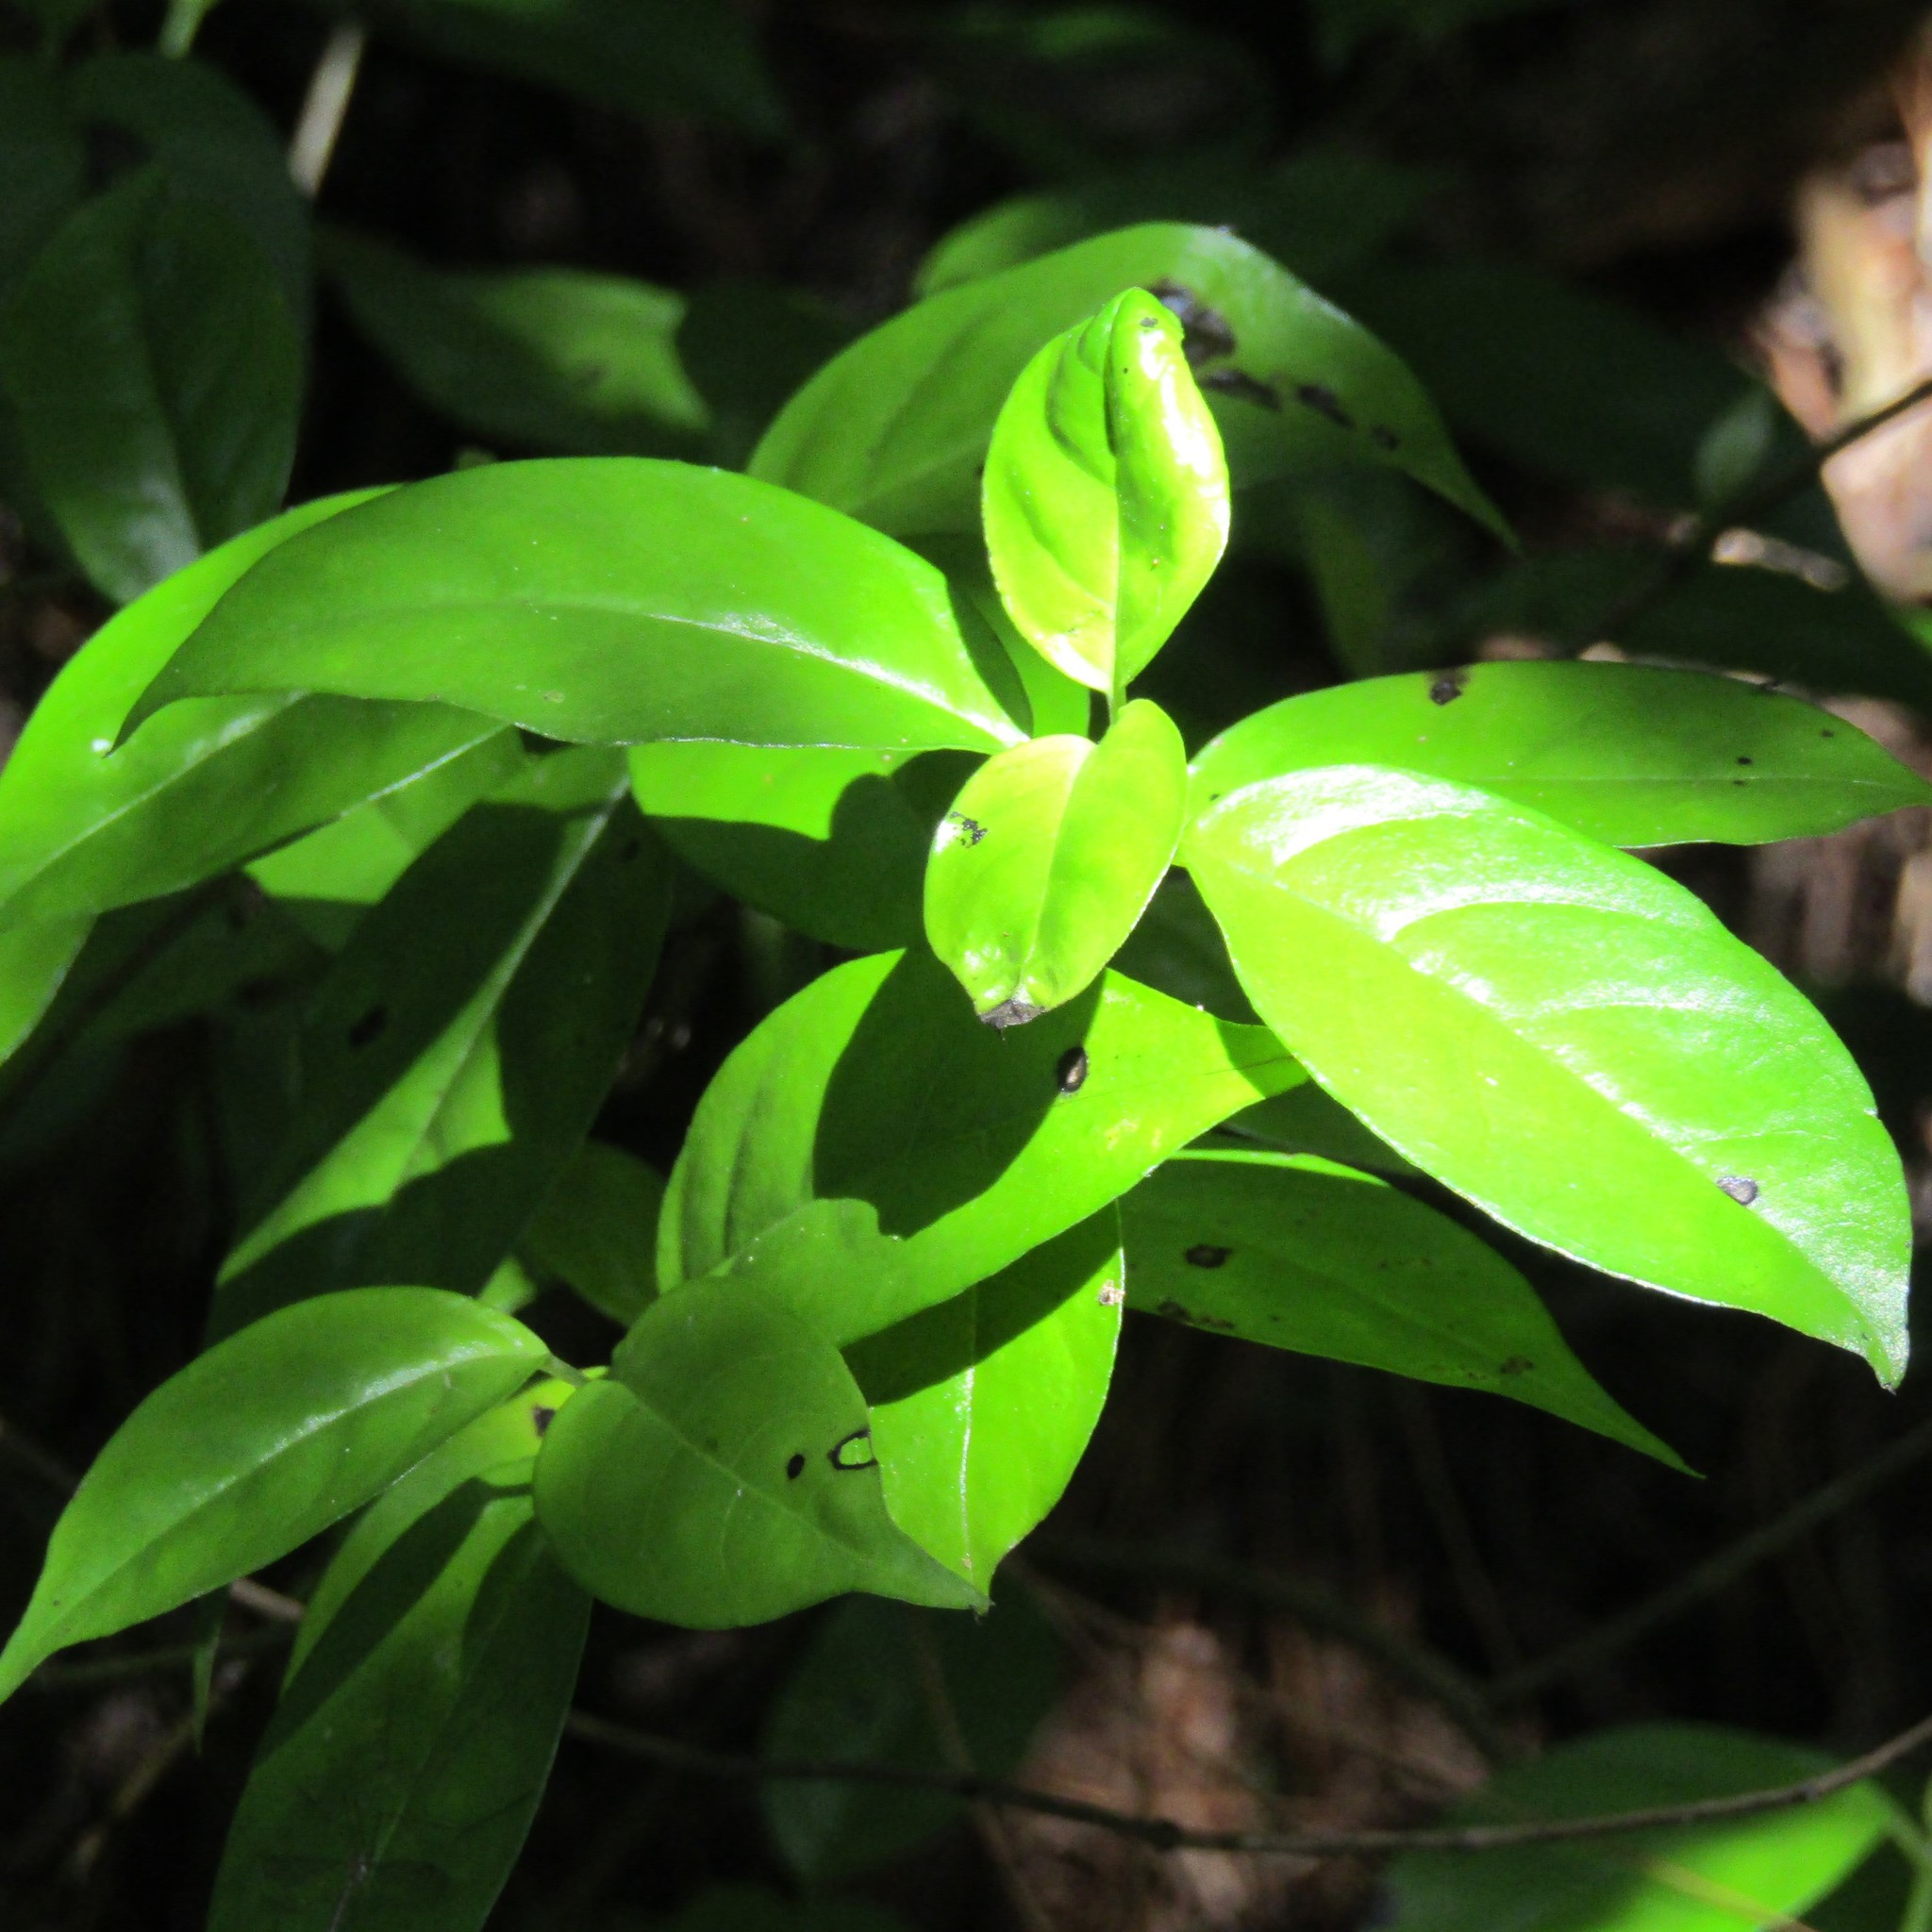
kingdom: Plantae
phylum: Tracheophyta
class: Magnoliopsida
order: Gentianales
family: Loganiaceae
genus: Geniostoma
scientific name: Geniostoma ligustrifolium
